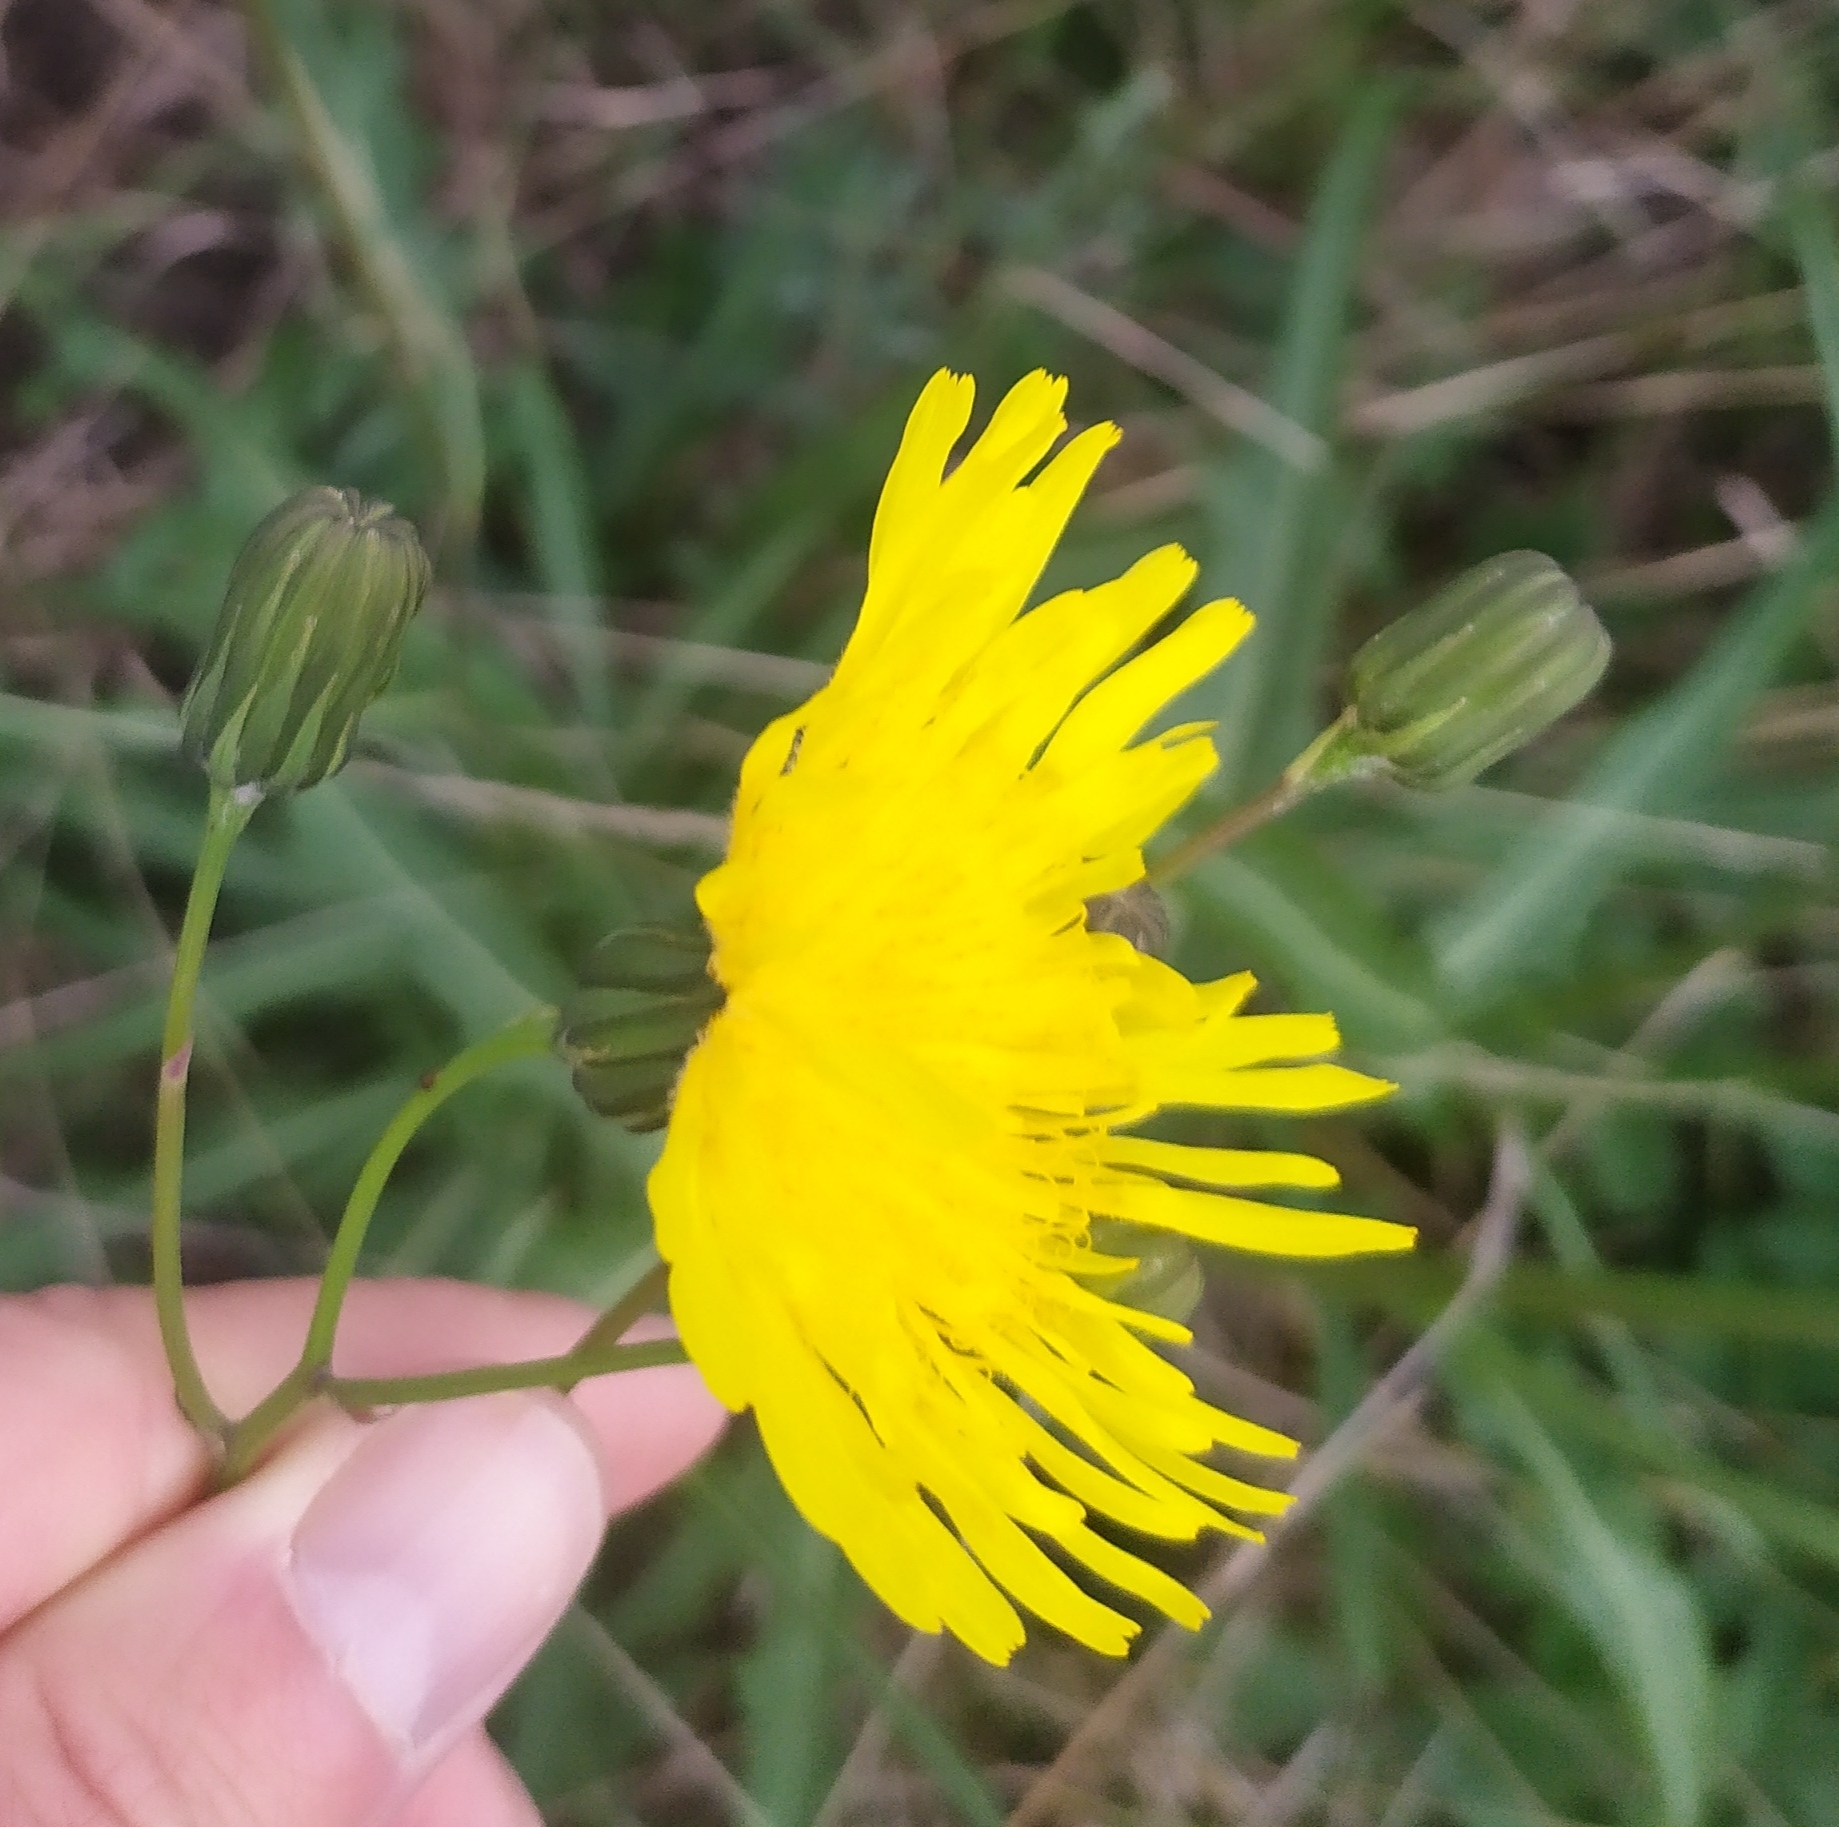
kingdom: Plantae
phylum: Tracheophyta
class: Magnoliopsida
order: Asterales
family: Asteraceae
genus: Sonchus
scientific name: Sonchus arvensis
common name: Perennial sow-thistle
